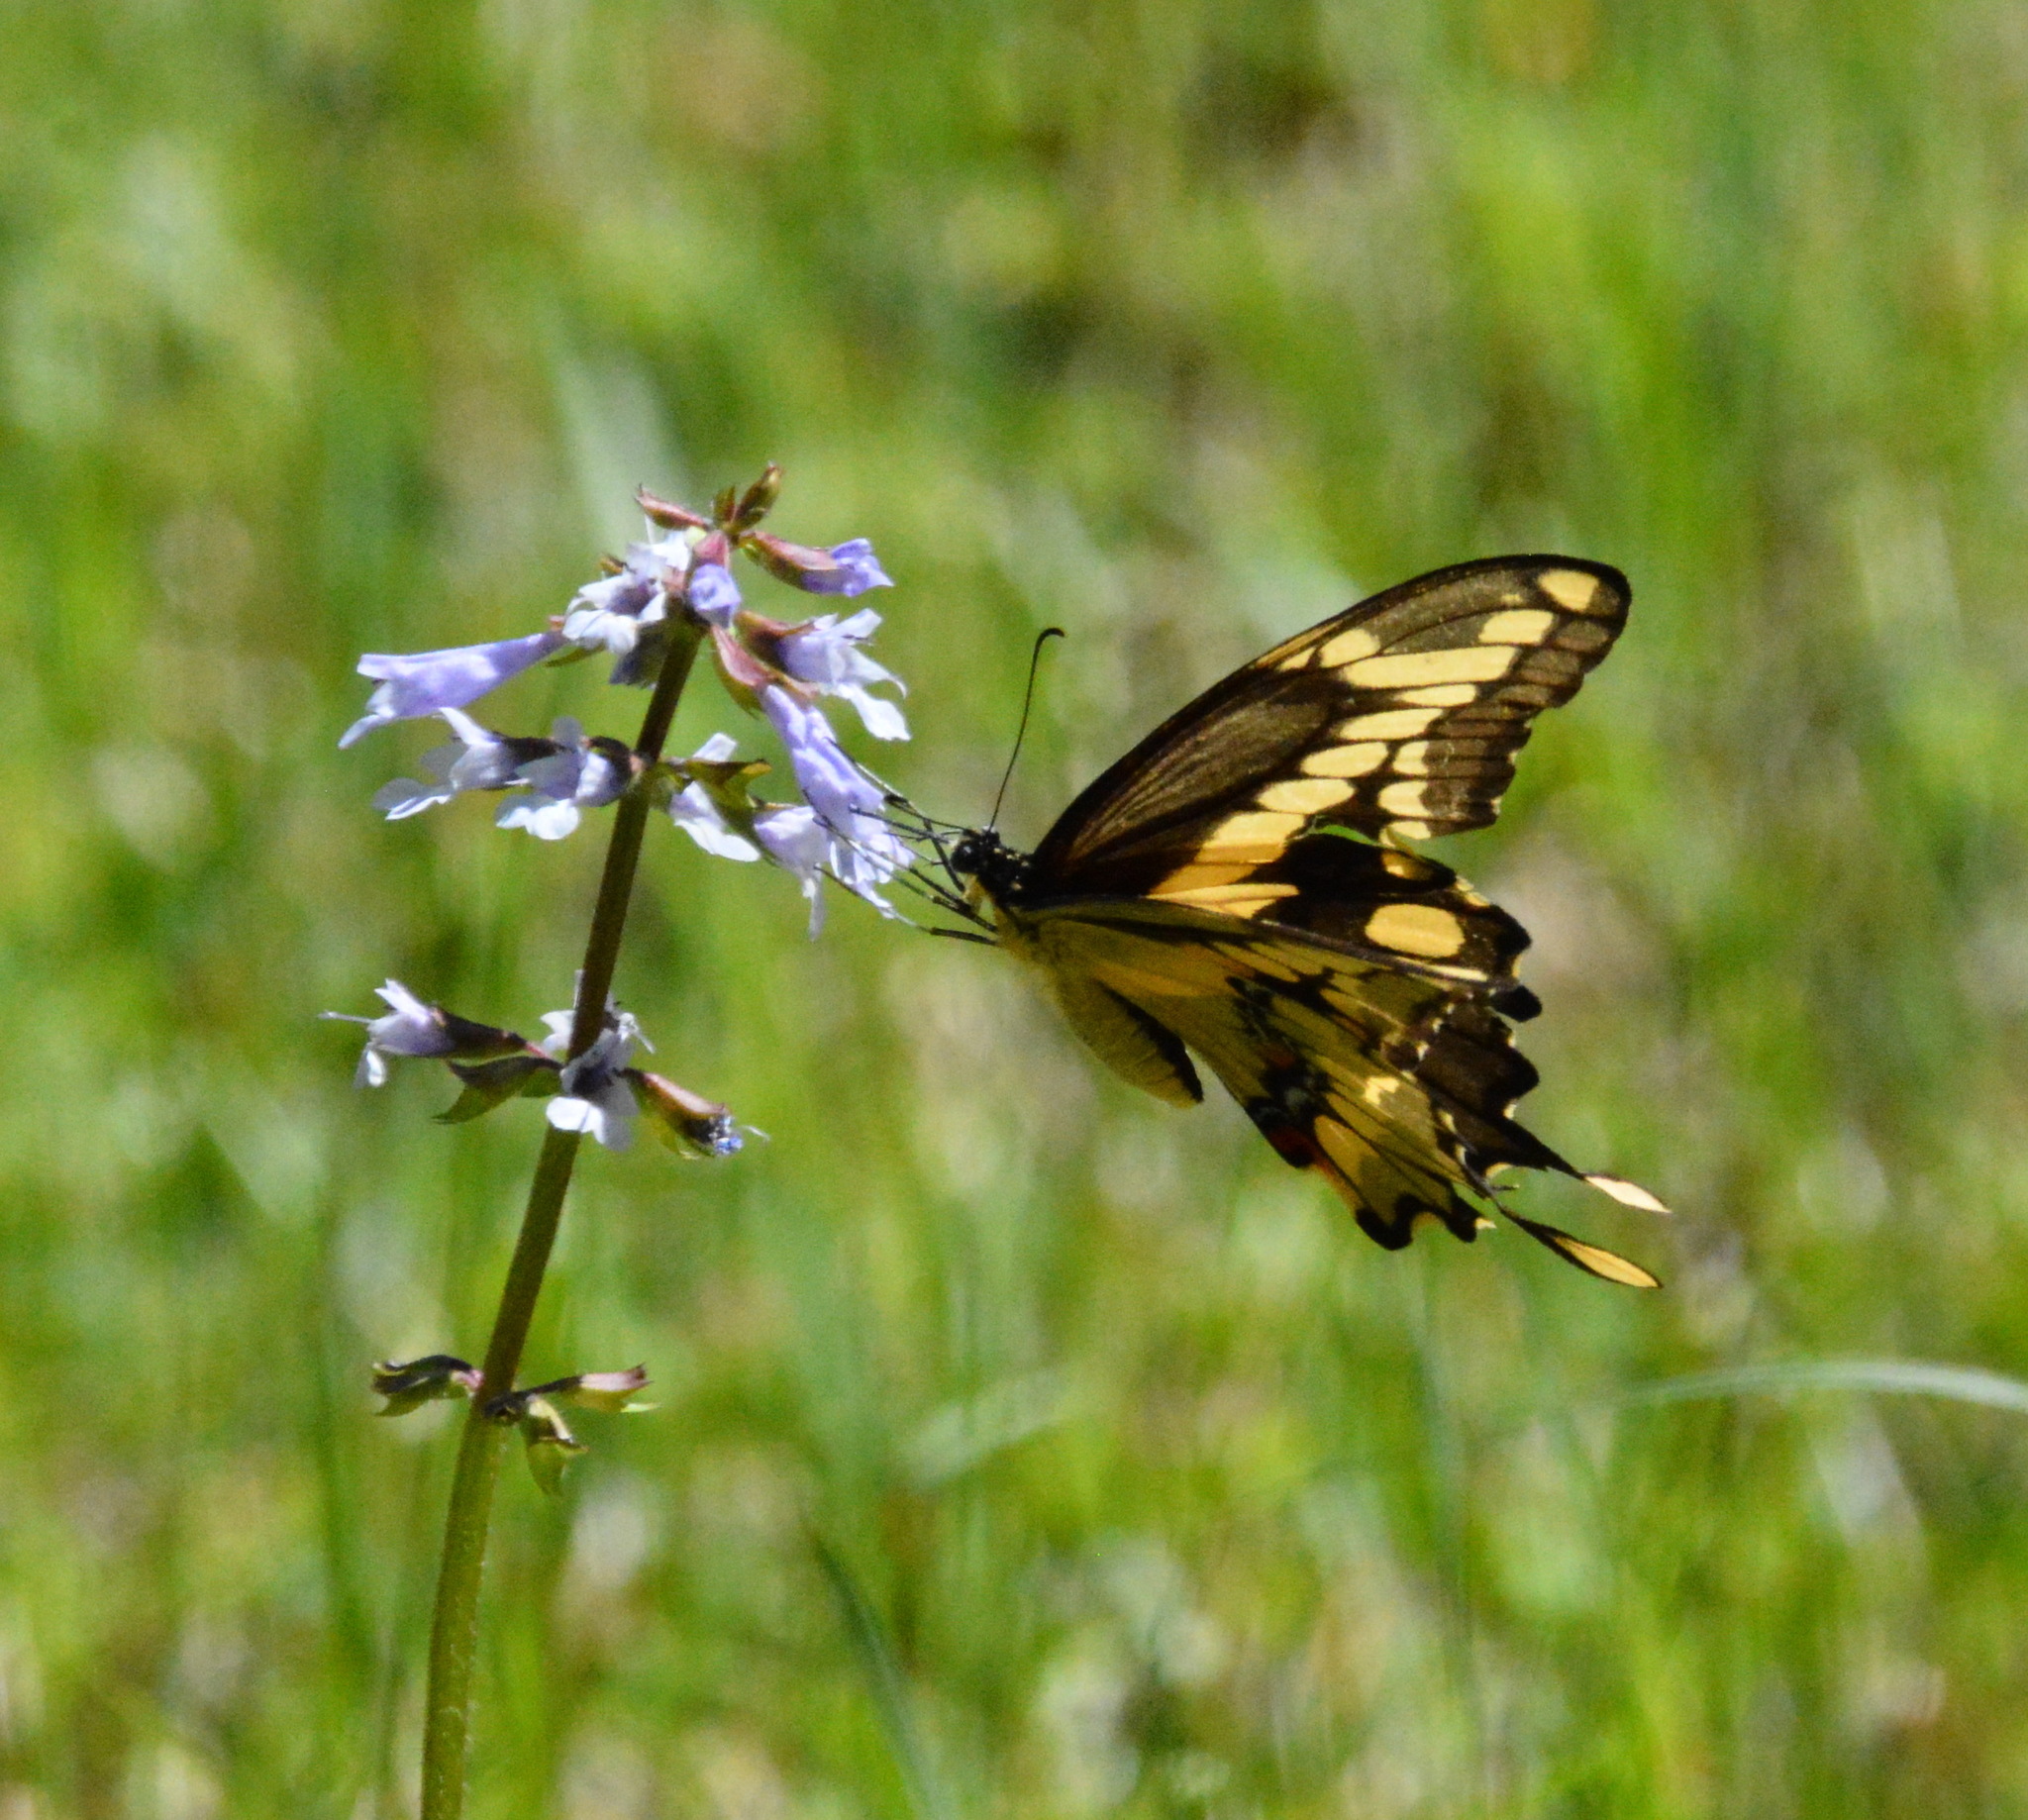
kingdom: Animalia
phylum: Arthropoda
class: Insecta
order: Lepidoptera
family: Papilionidae
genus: Papilio
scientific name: Papilio cresphontes
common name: Giant swallowtail
